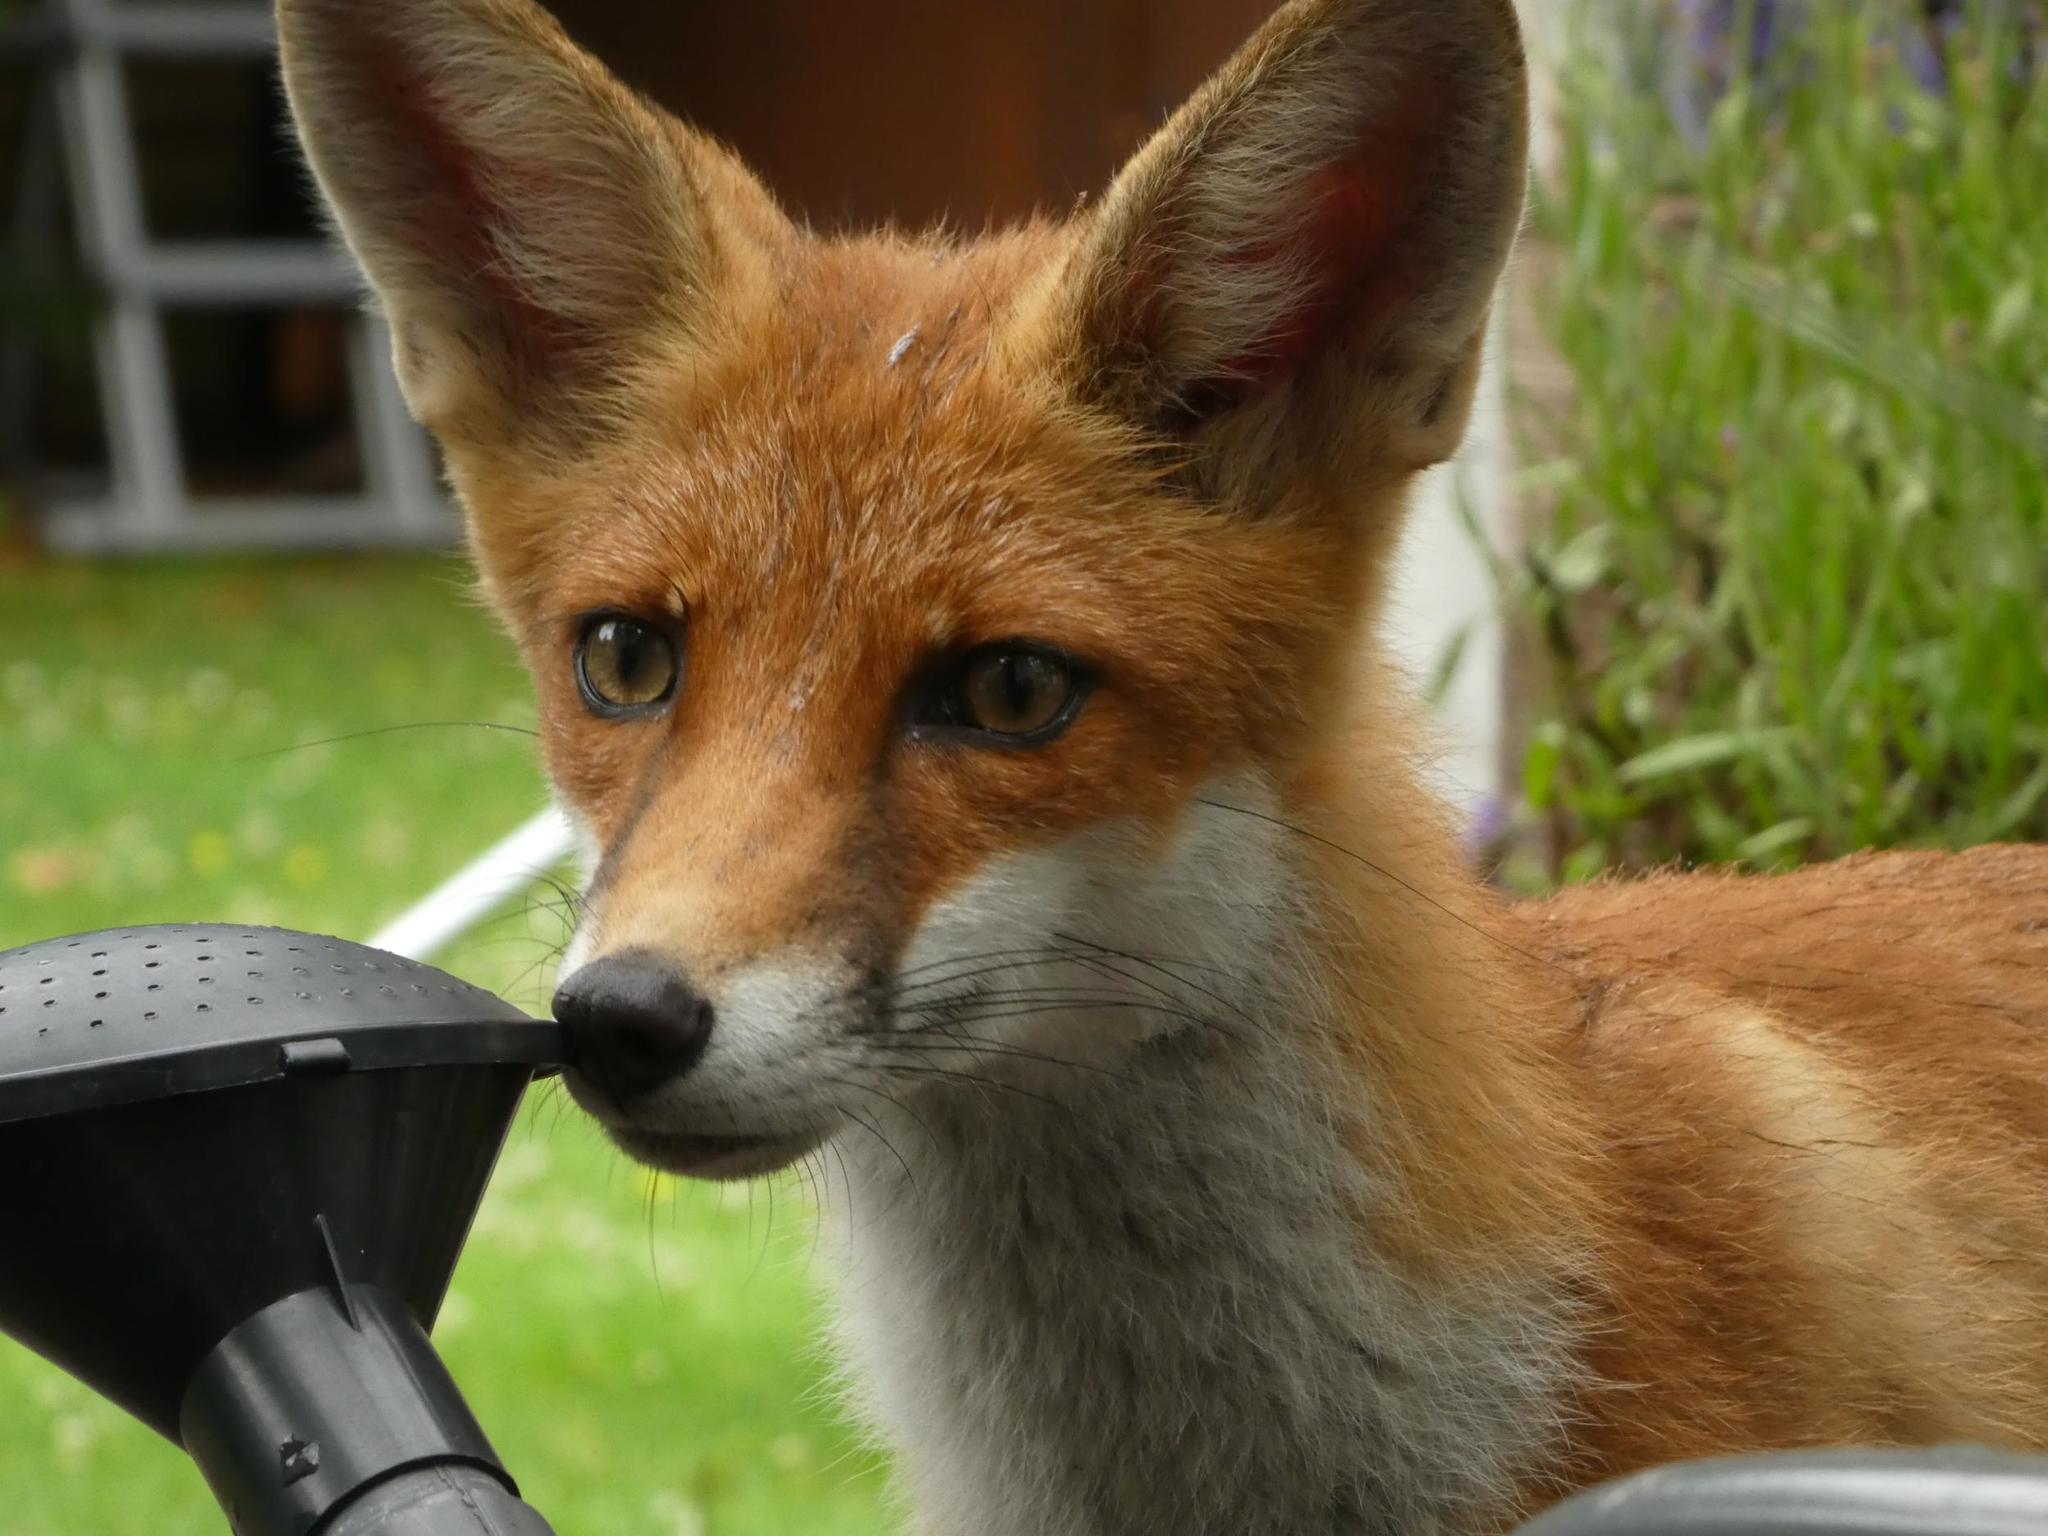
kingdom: Animalia
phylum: Chordata
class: Mammalia
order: Carnivora
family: Canidae
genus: Vulpes
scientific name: Vulpes vulpes
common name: Red fox
